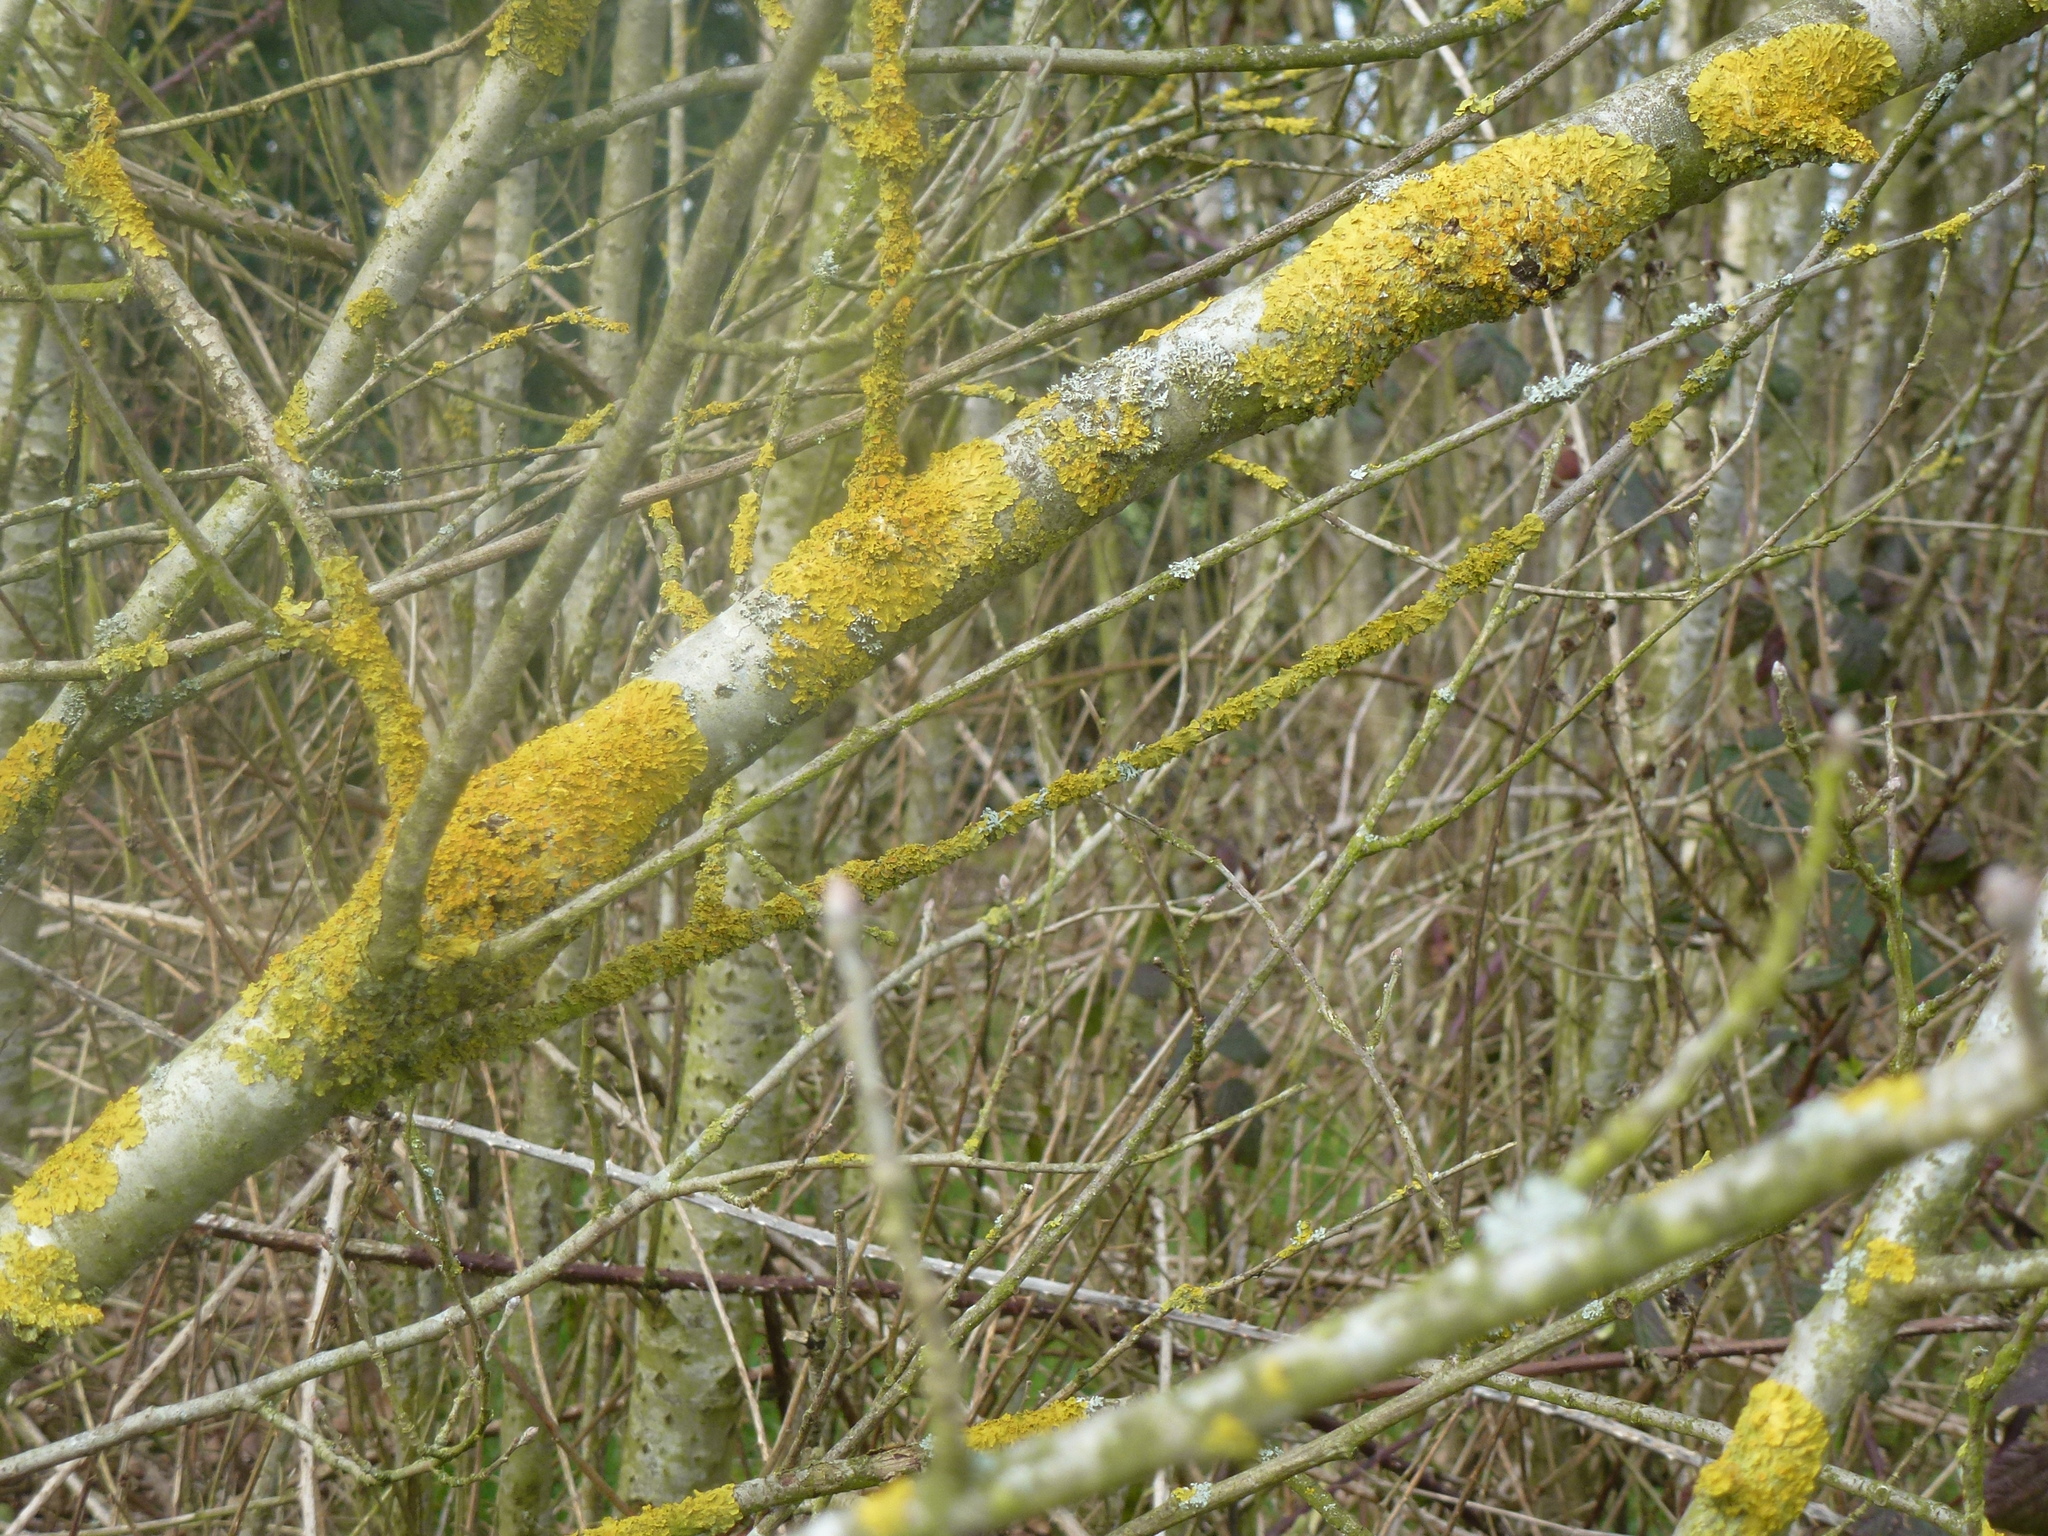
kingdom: Fungi
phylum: Ascomycota
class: Lecanoromycetes
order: Teloschistales
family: Teloschistaceae
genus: Xanthoria
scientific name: Xanthoria parietina
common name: Common orange lichen
